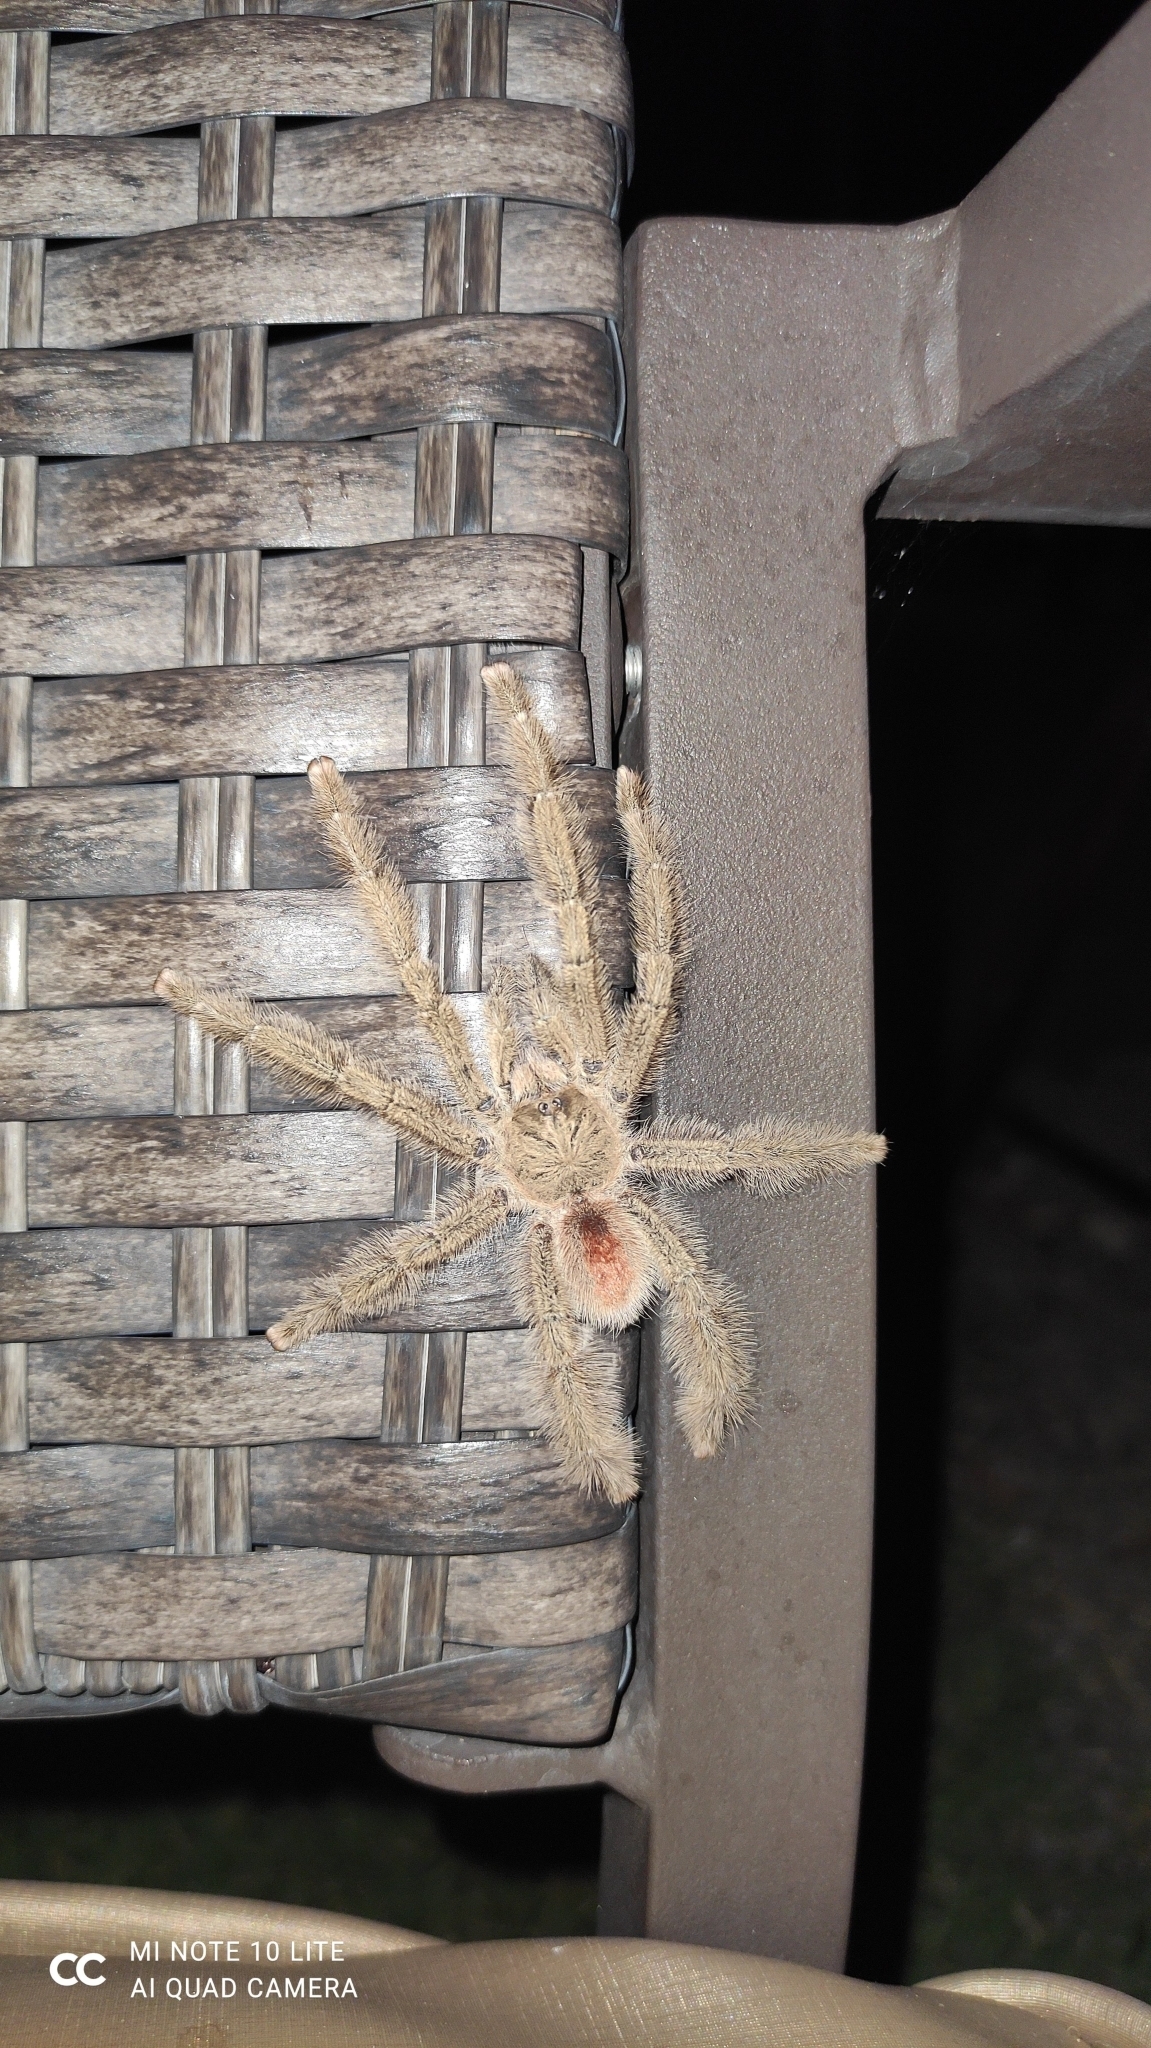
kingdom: Animalia
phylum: Arthropoda
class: Arachnida
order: Araneae
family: Theraphosidae
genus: Iridopelma
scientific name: Iridopelma hirsutum
